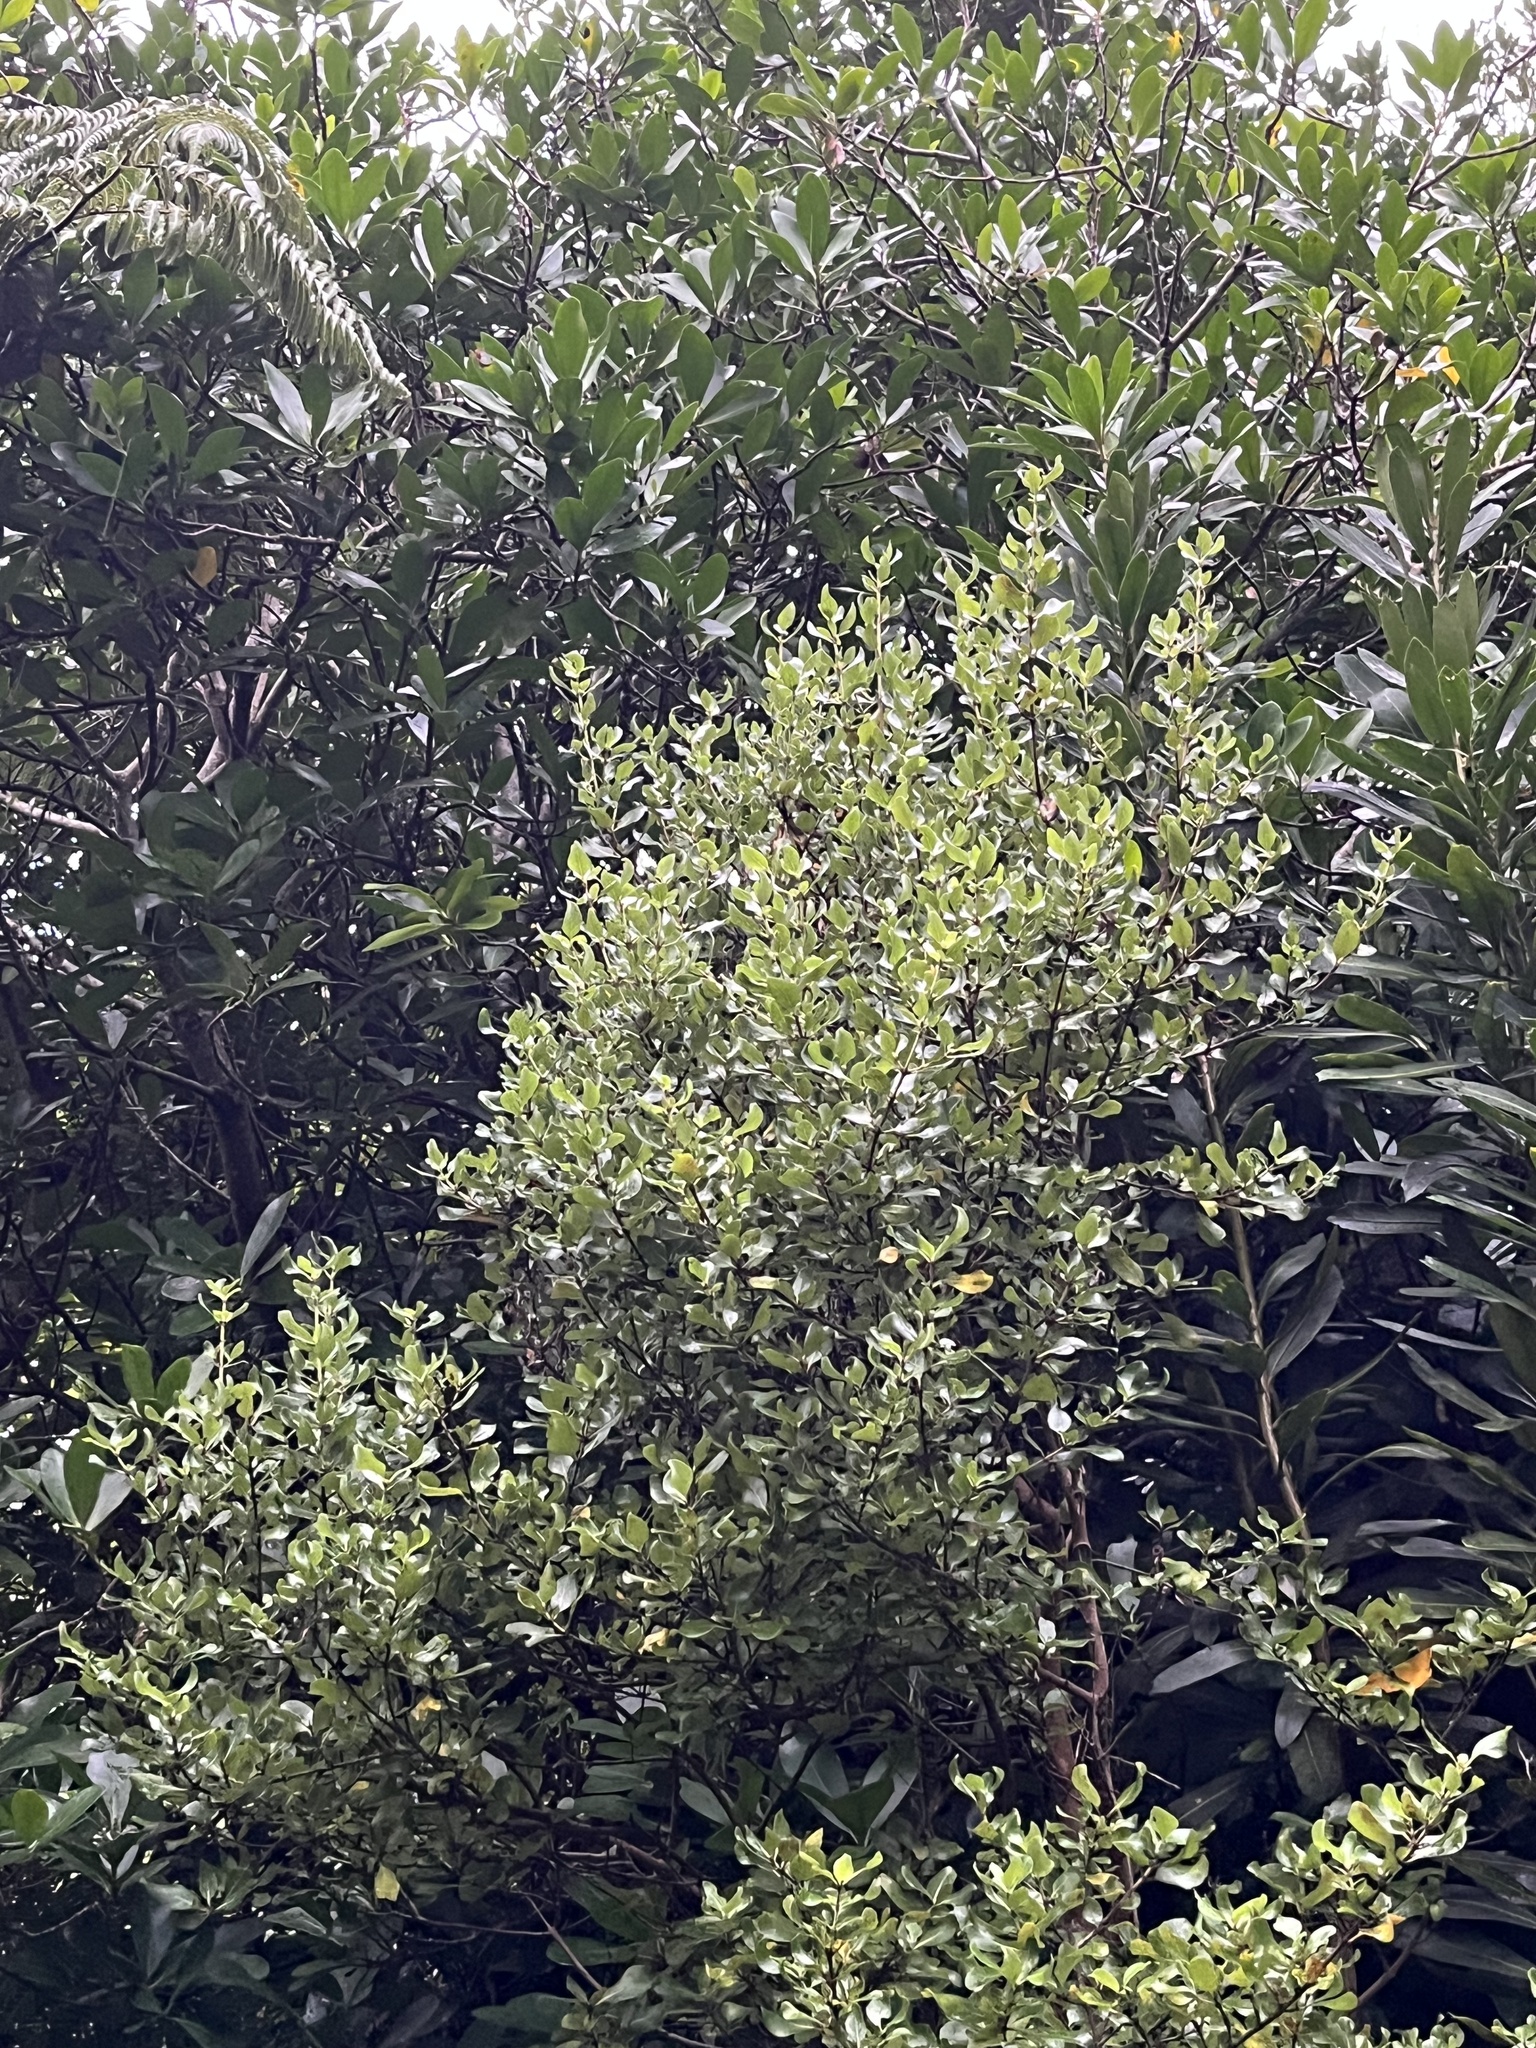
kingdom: Plantae
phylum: Tracheophyta
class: Magnoliopsida
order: Gentianales
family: Rubiaceae
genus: Coprosma
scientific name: Coprosma chathamica
